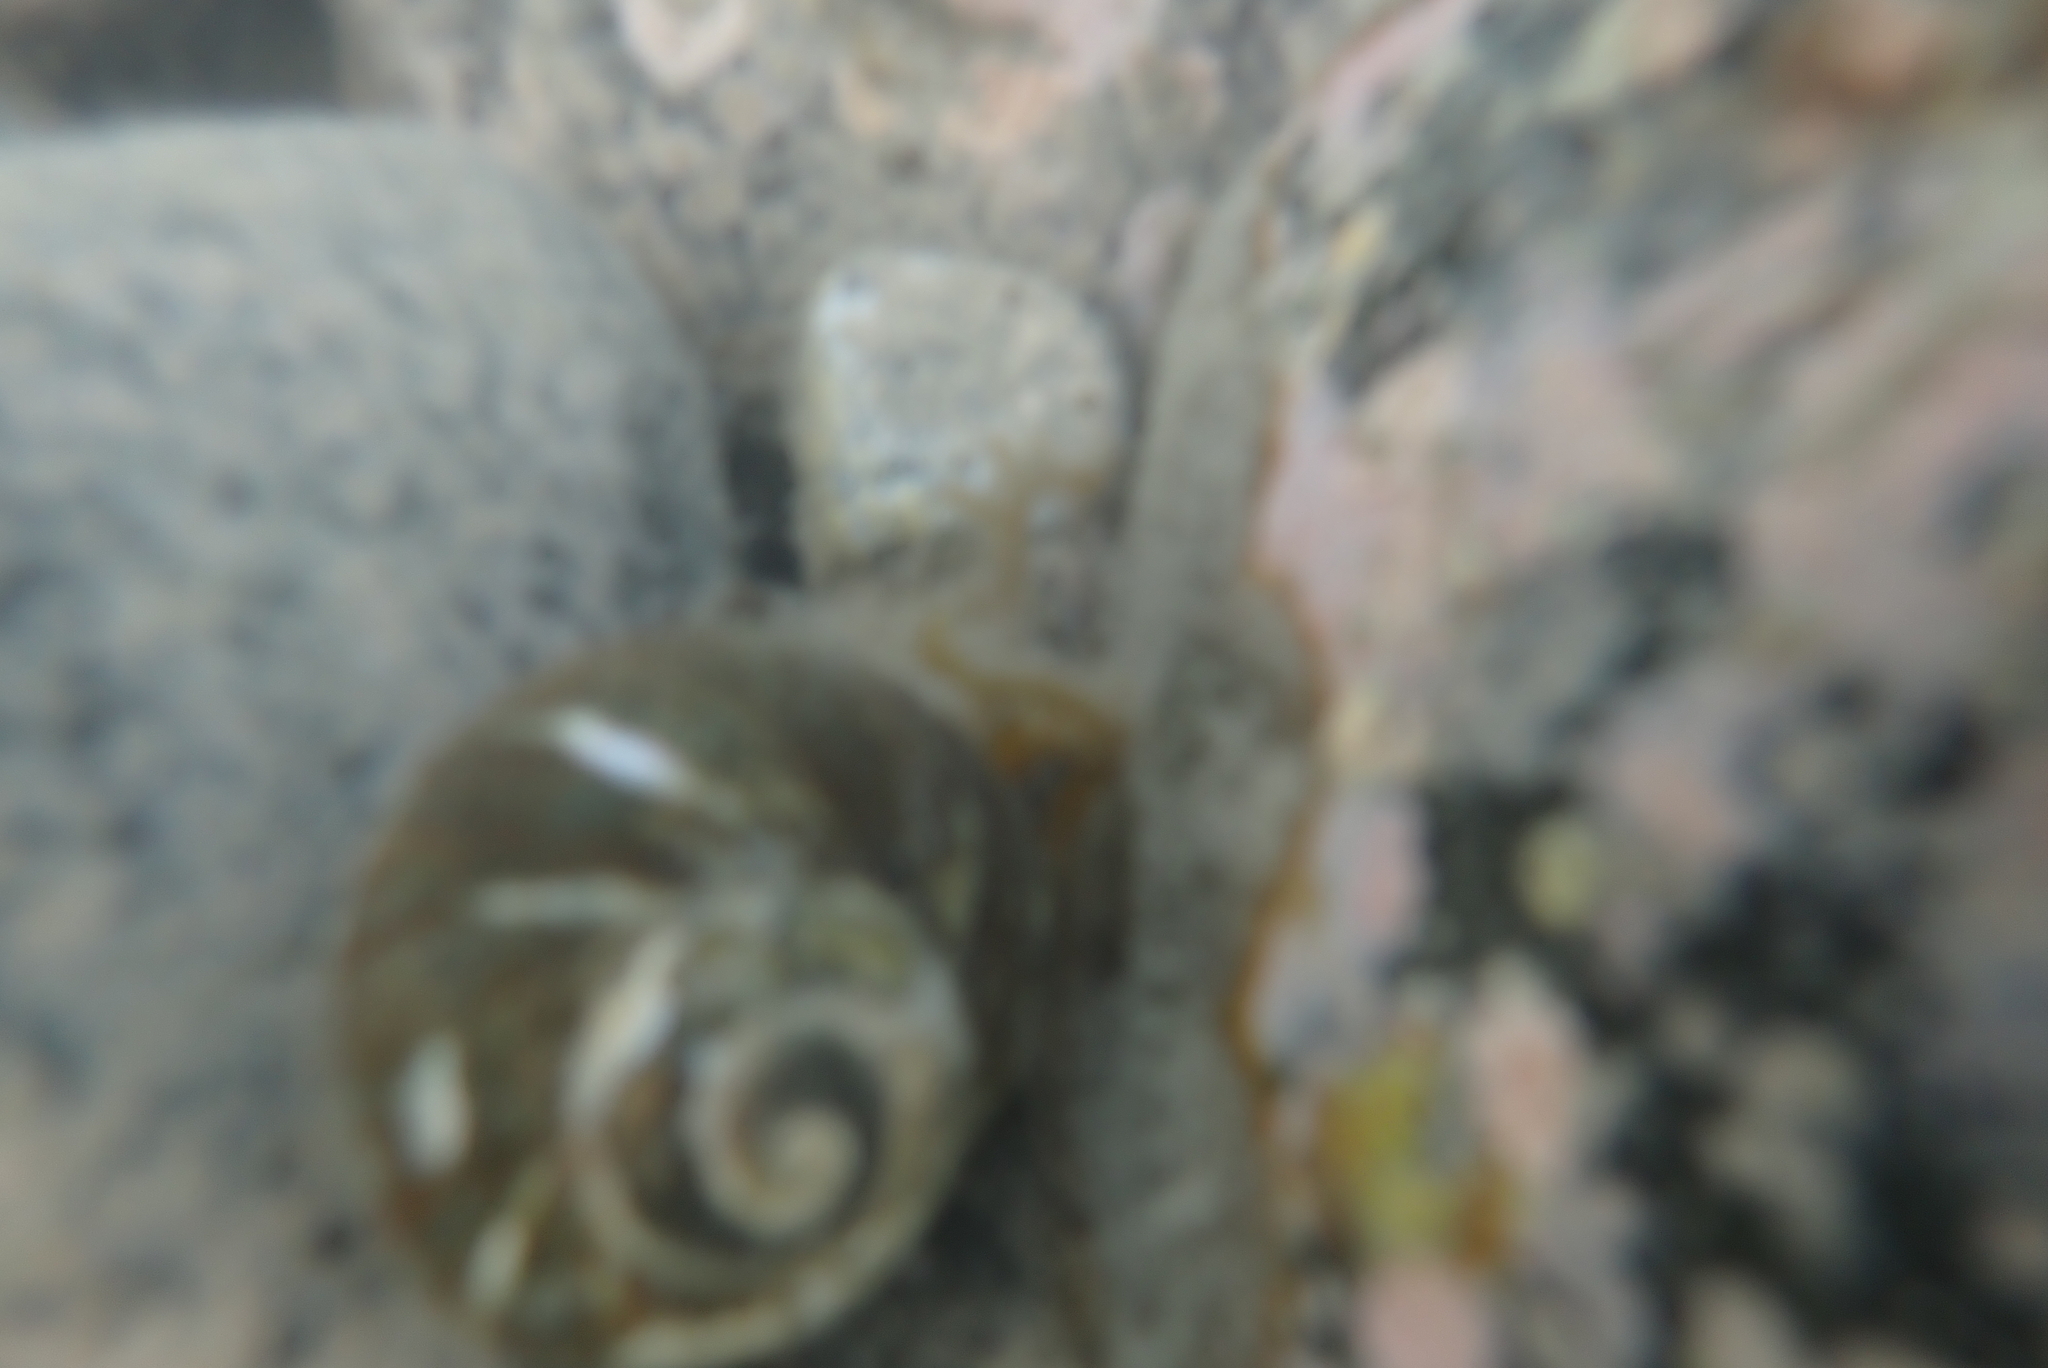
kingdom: Animalia
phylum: Mollusca
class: Gastropoda
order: Trochida
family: Turbinidae
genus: Lunella
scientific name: Lunella smaragda
